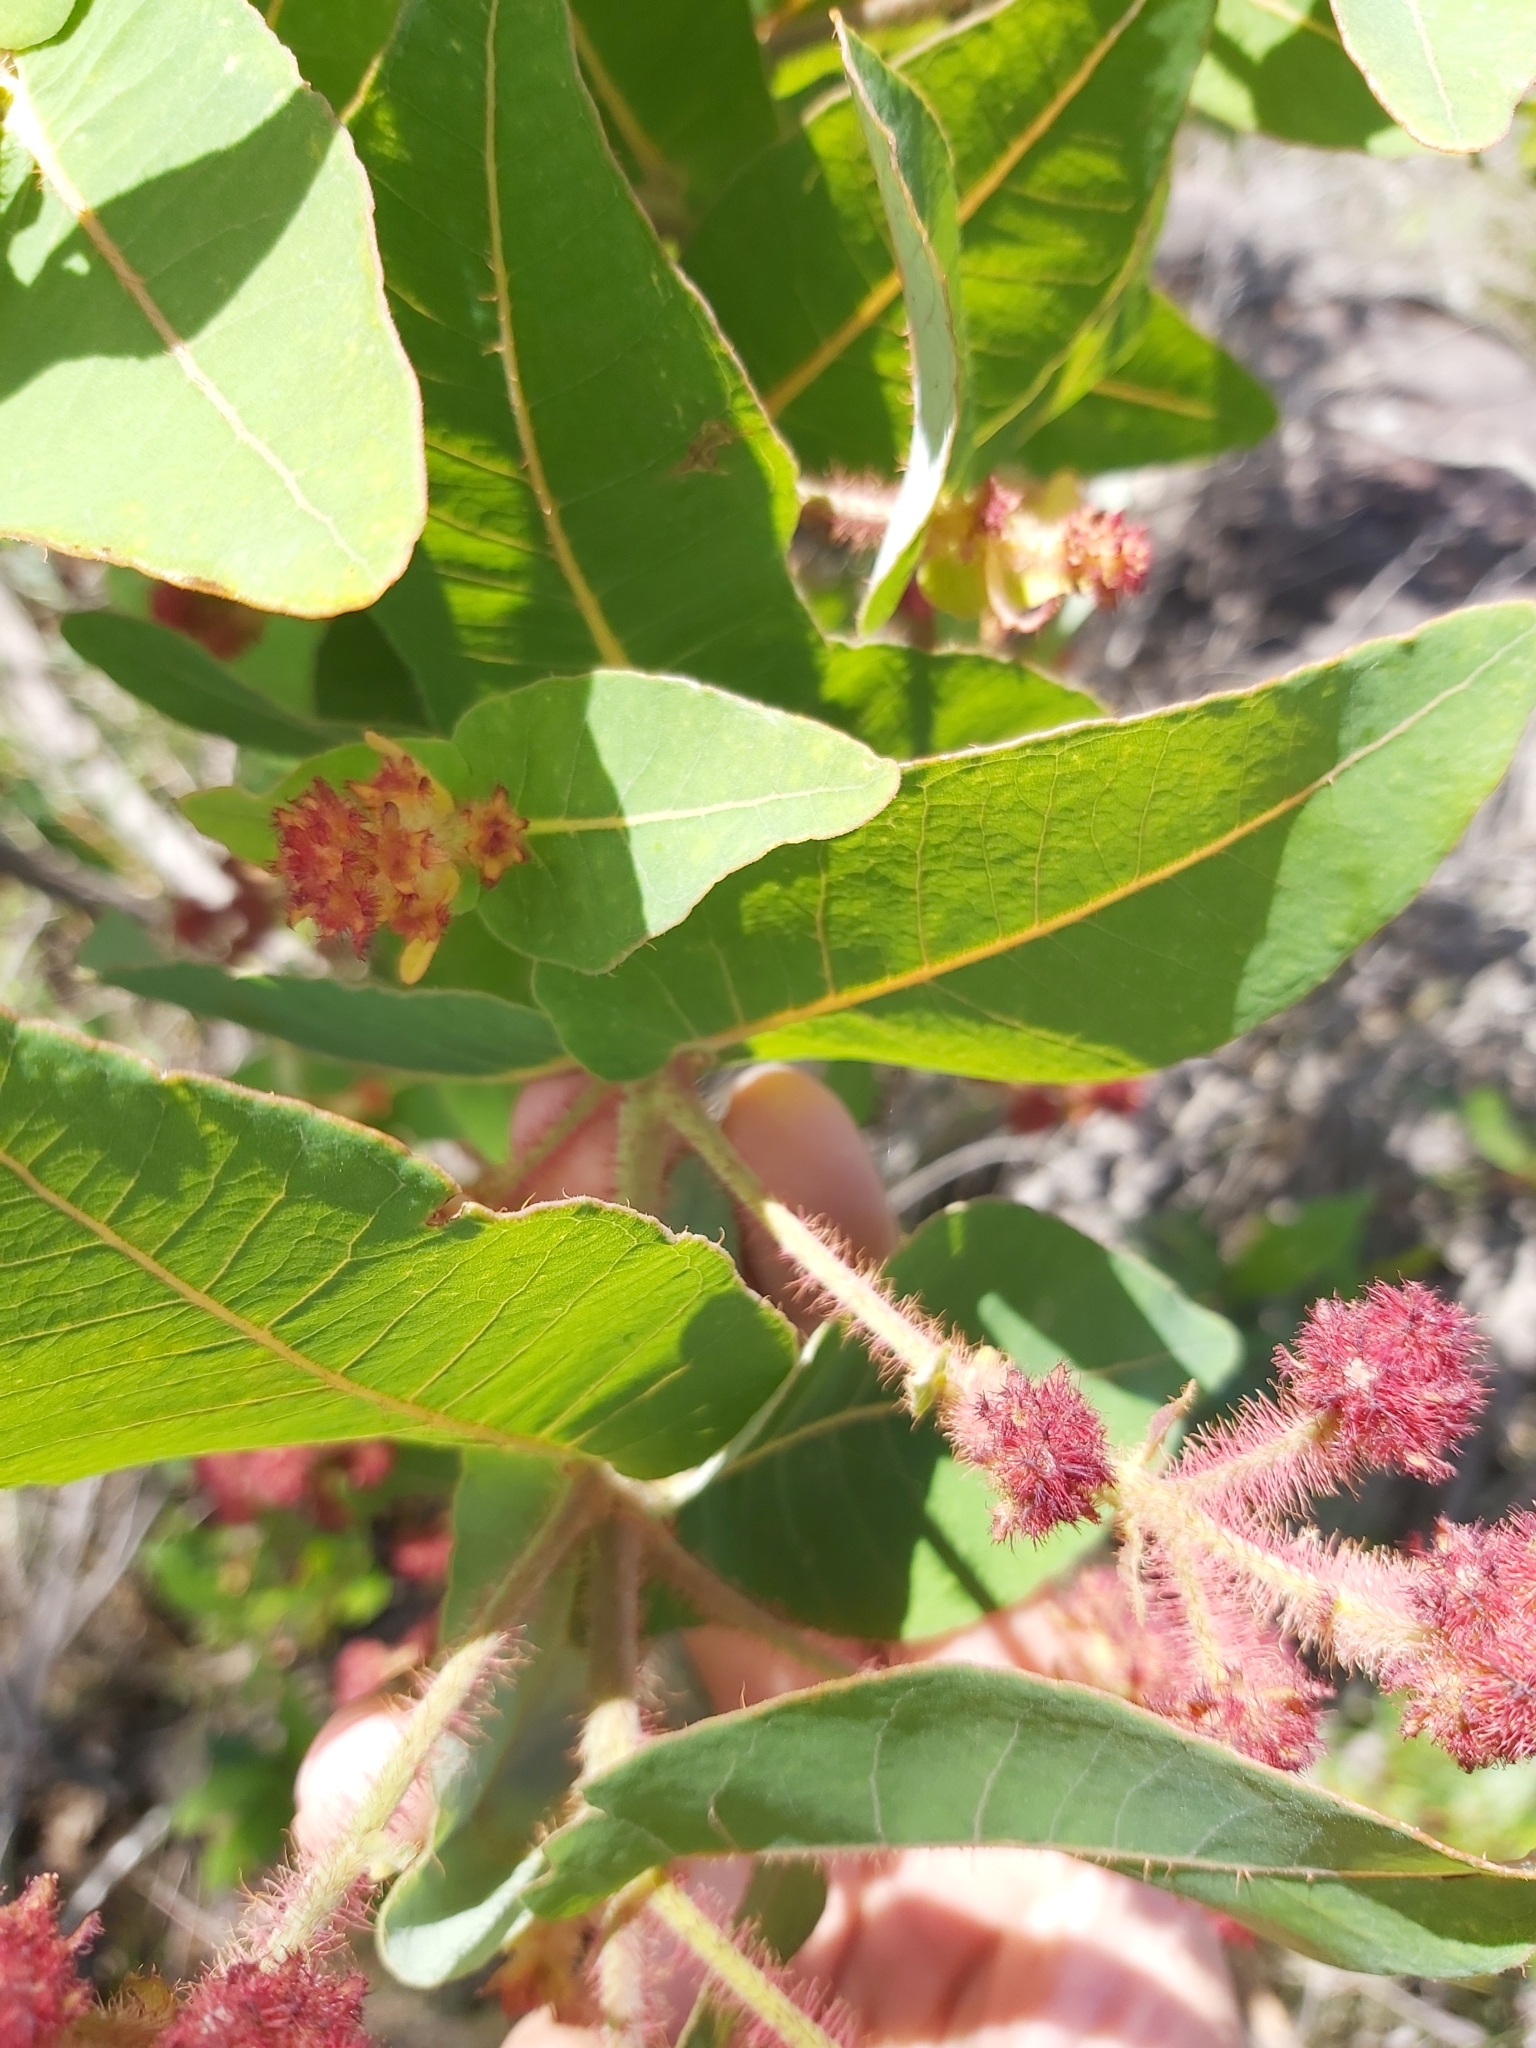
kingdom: Plantae
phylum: Tracheophyta
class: Magnoliopsida
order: Myrtales
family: Myrtaceae
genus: Angophora
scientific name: Angophora hispida
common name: Dwarf-apple
